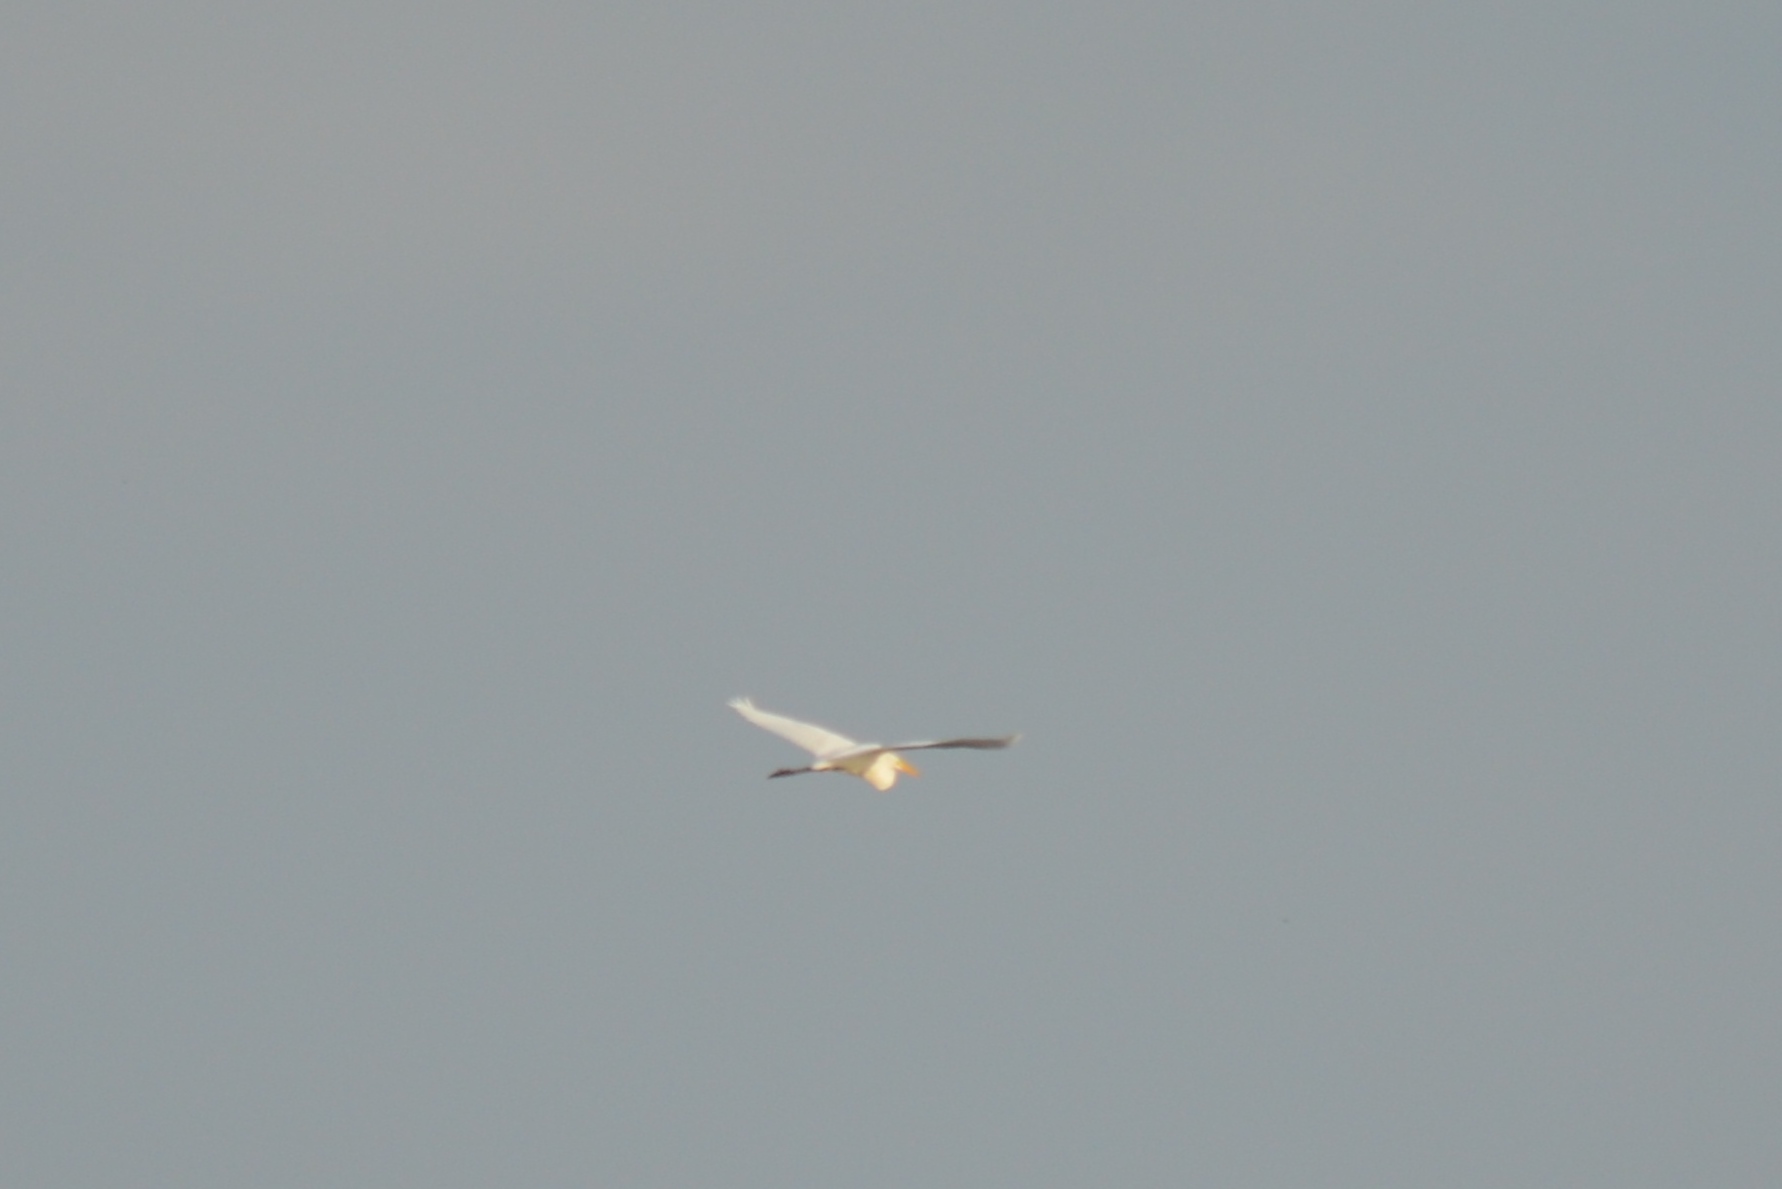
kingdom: Animalia
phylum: Chordata
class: Aves
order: Pelecaniformes
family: Ardeidae
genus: Ardea
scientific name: Ardea alba
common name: Great egret
